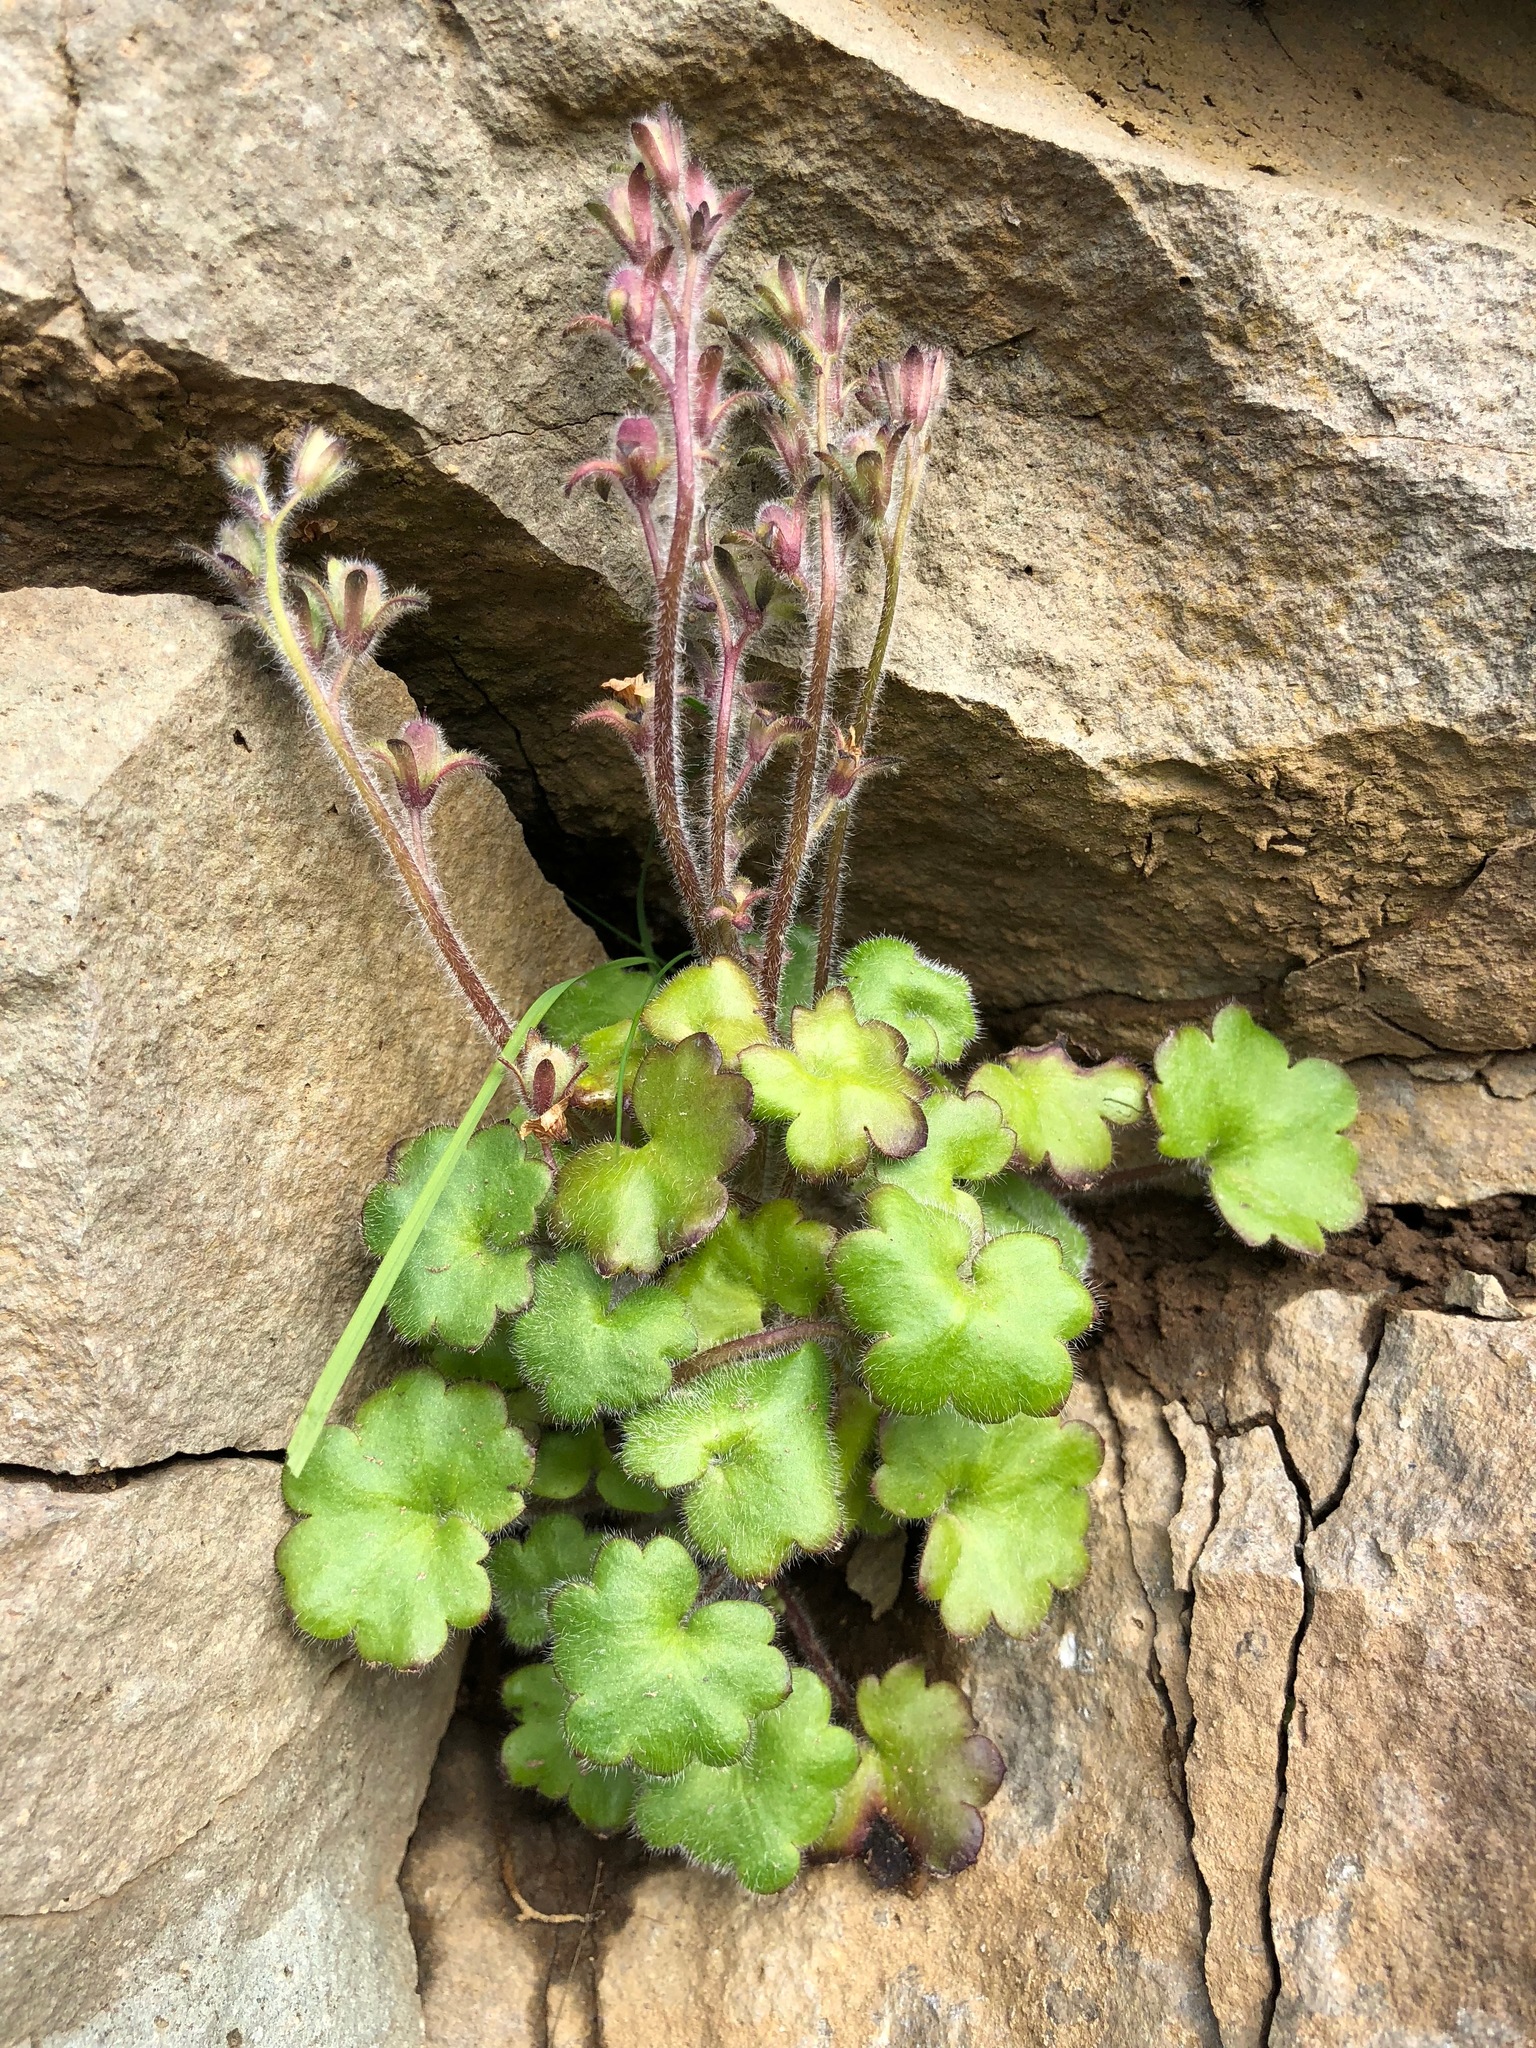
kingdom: Plantae
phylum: Tracheophyta
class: Magnoliopsida
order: Boraginales
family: Hydrophyllaceae
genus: Romanzoffia
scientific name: Romanzoffia unalaschcensis
